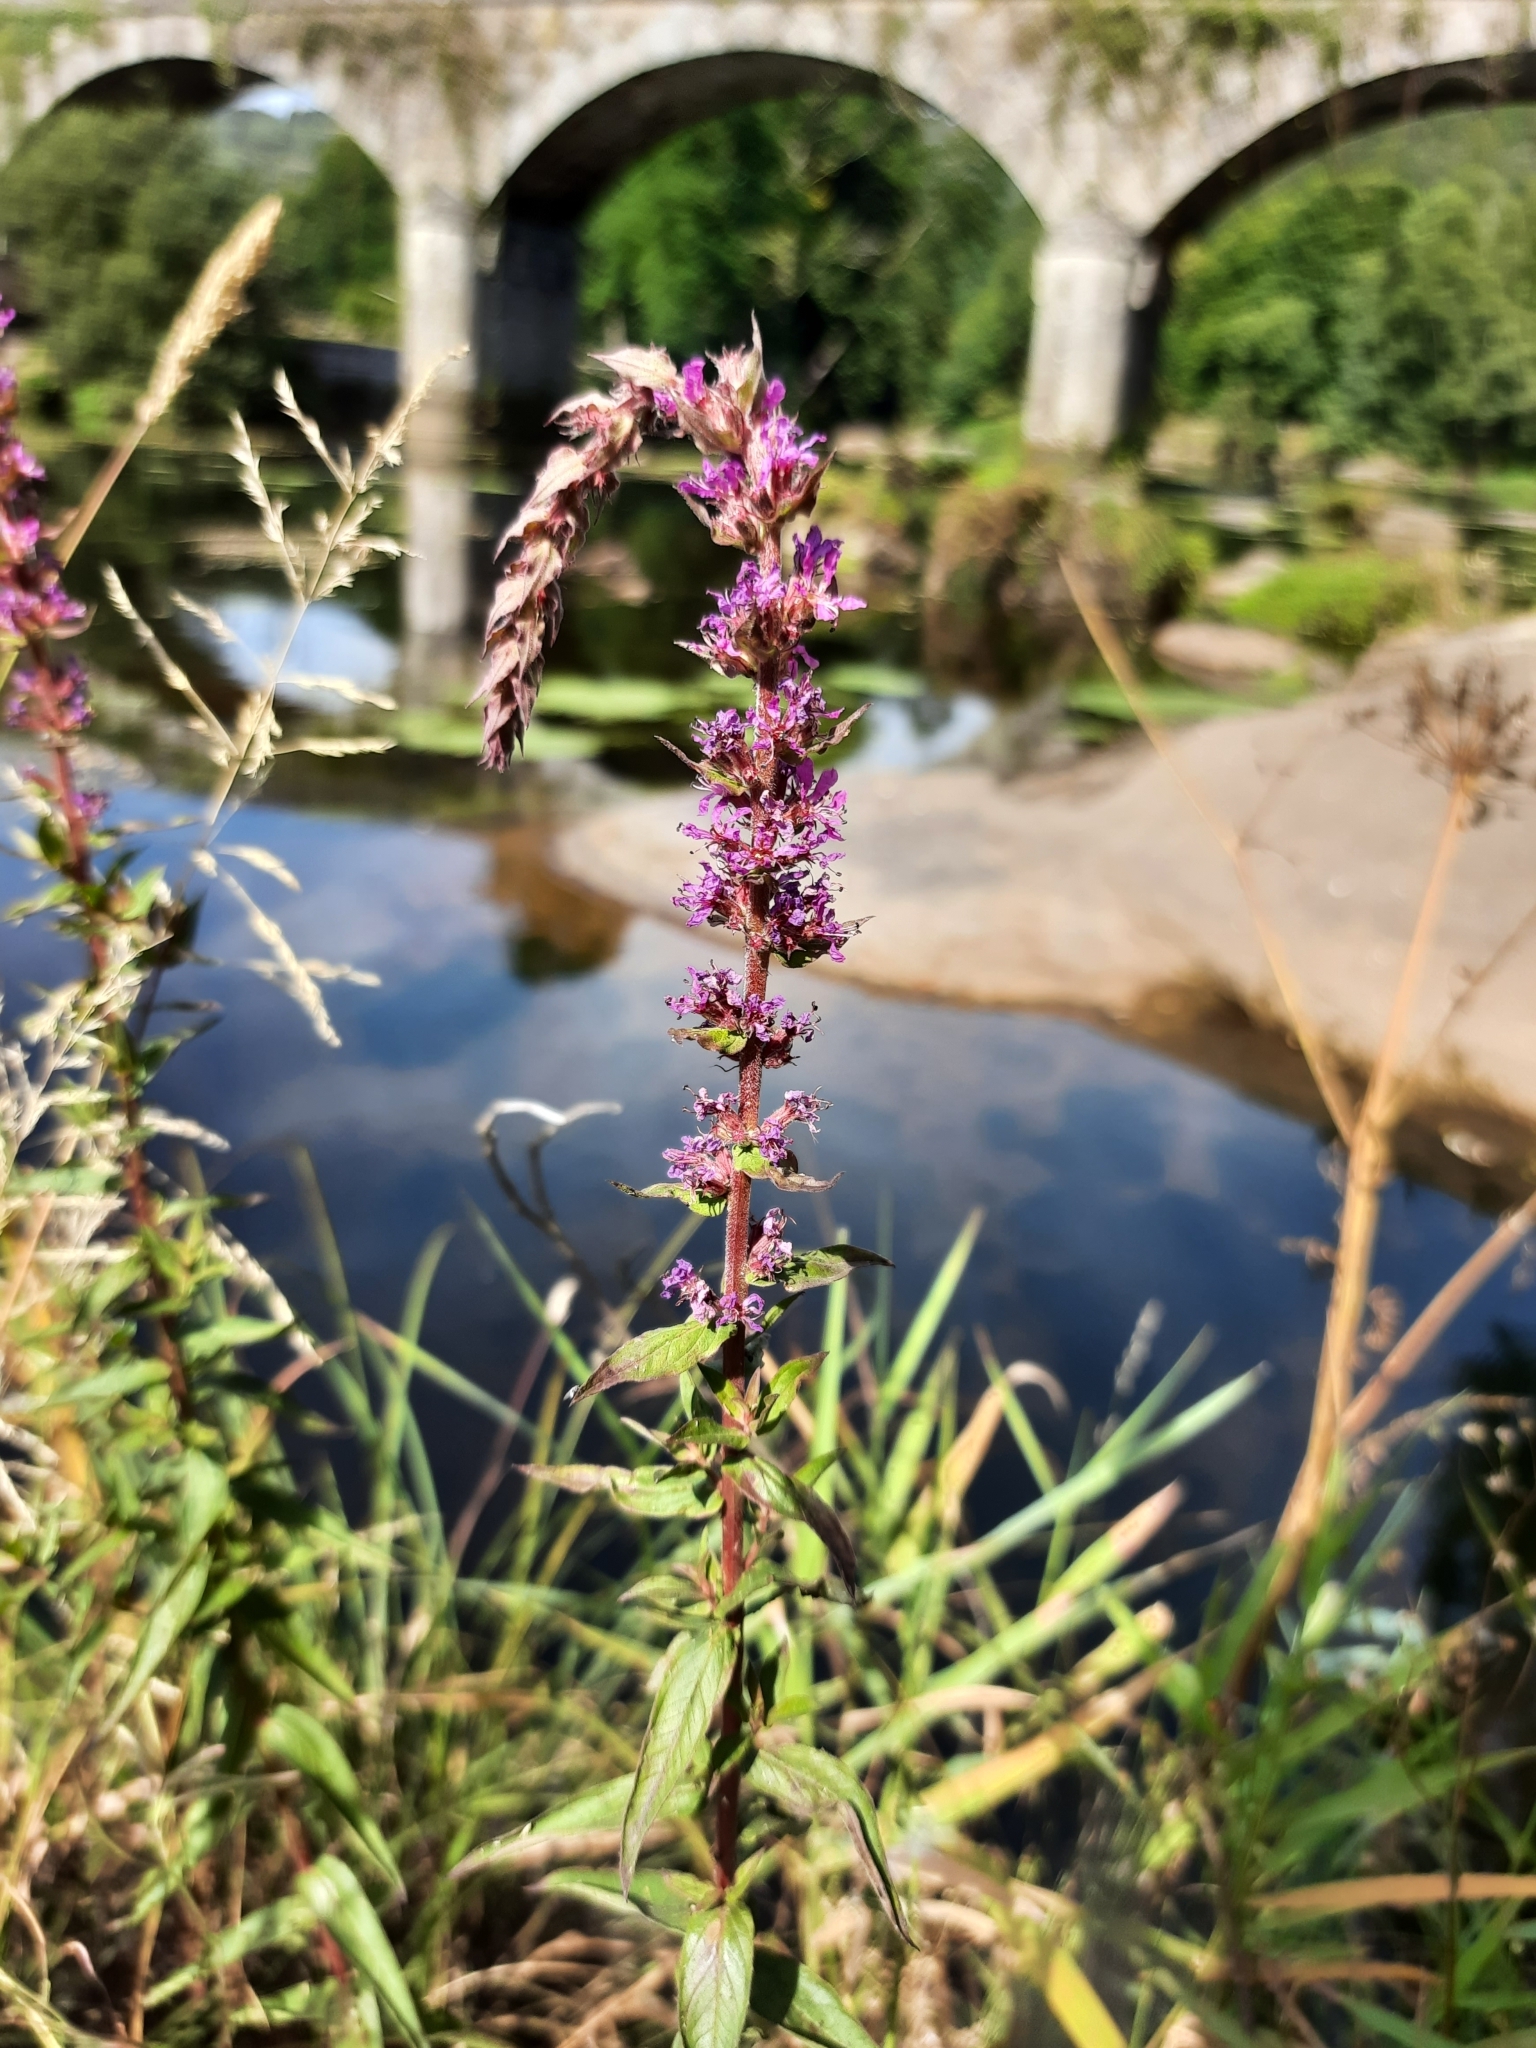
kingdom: Plantae
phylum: Tracheophyta
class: Magnoliopsida
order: Myrtales
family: Lythraceae
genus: Lythrum
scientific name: Lythrum salicaria
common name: Purple loosestrife
